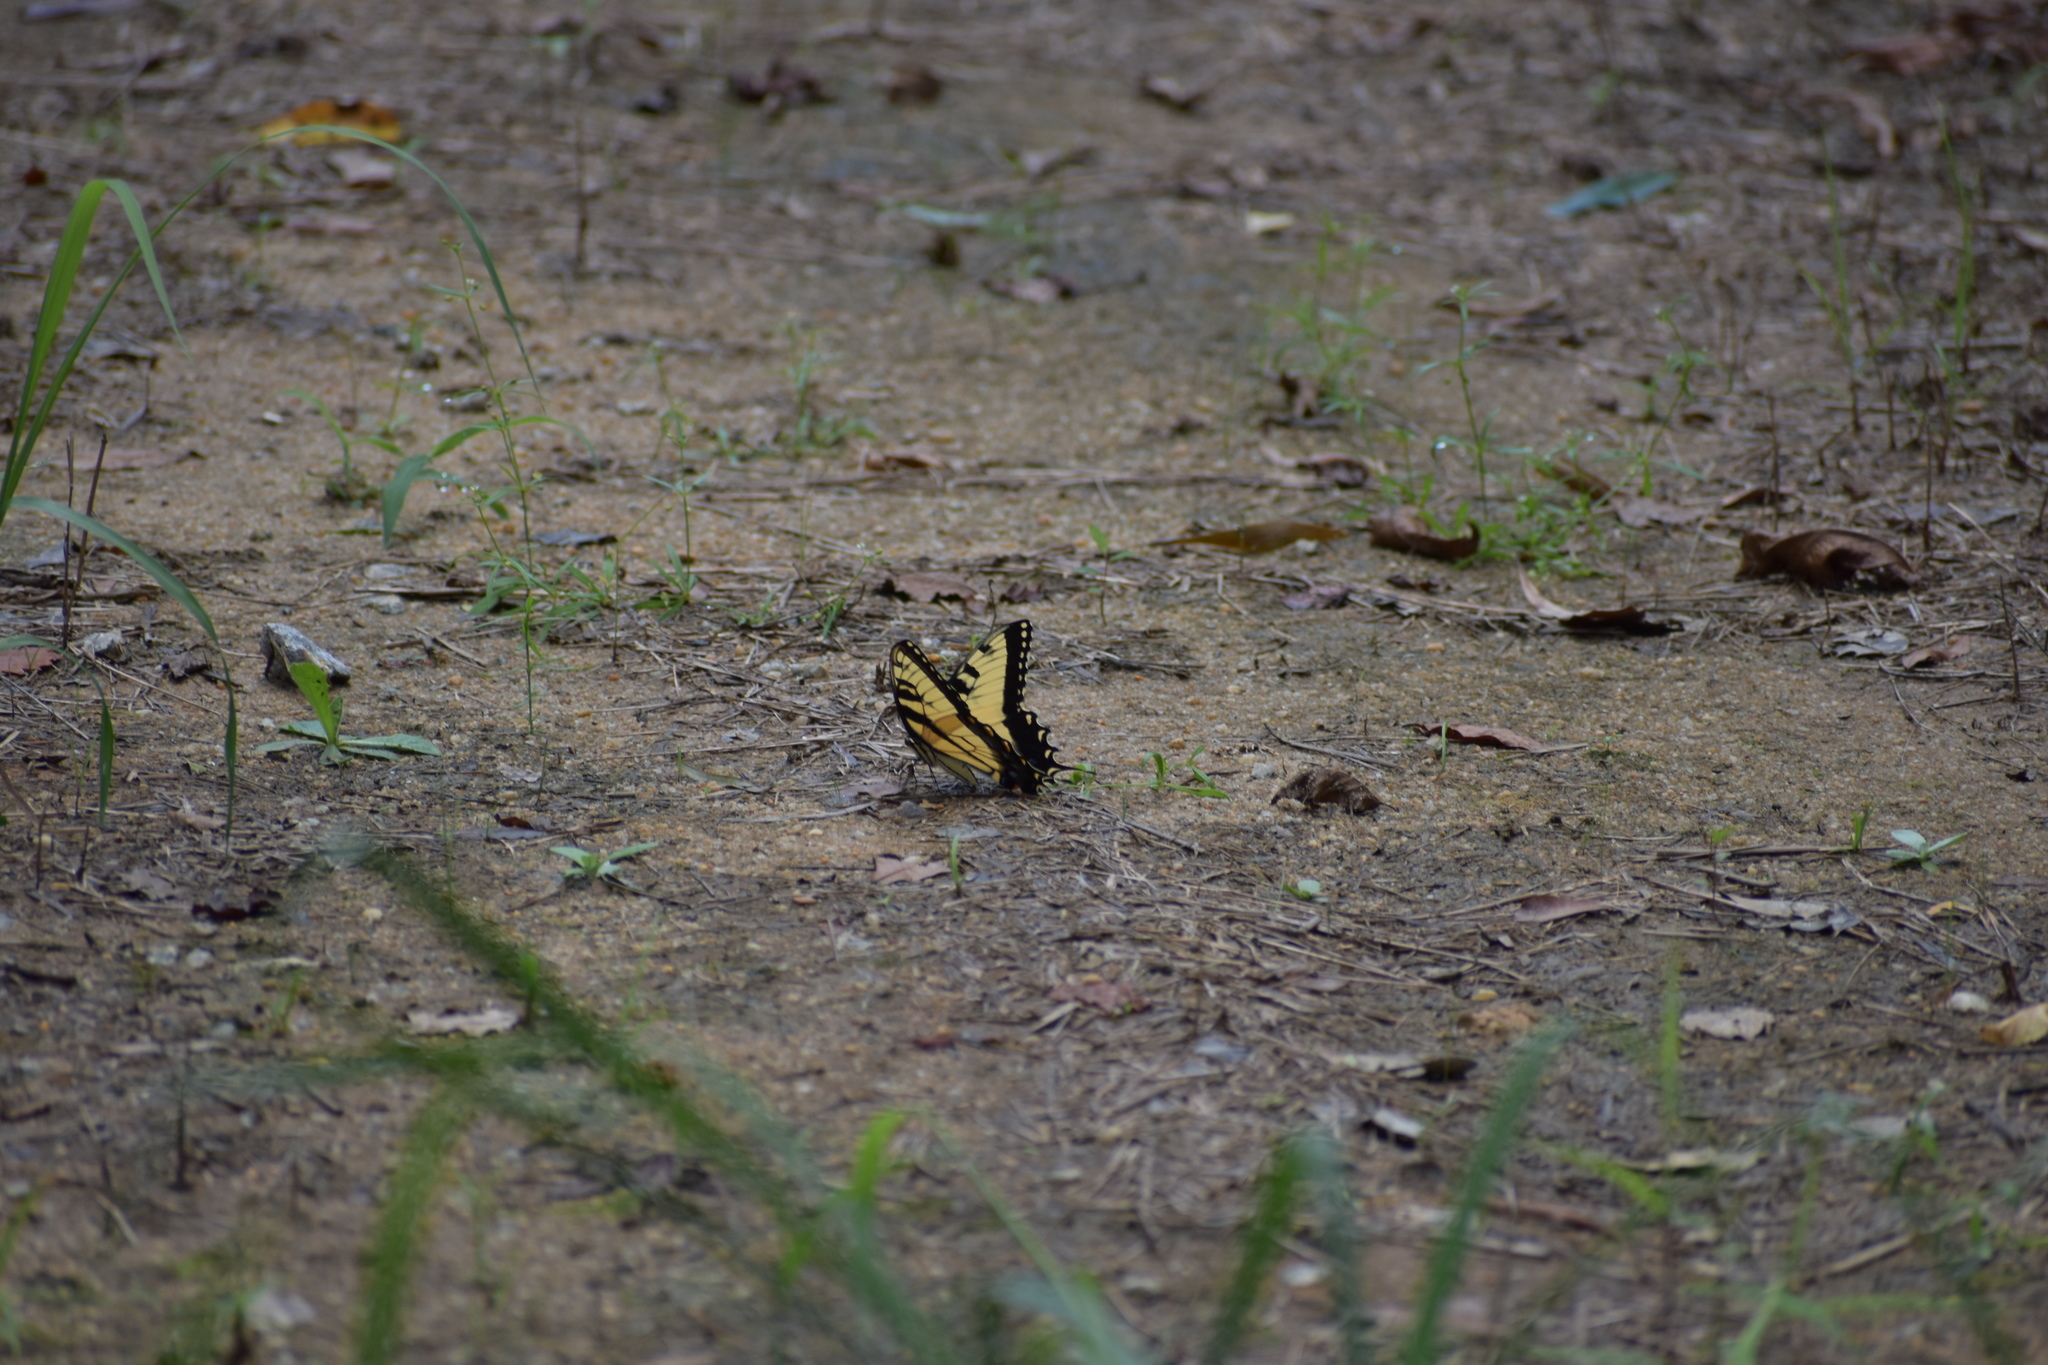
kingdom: Animalia
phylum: Arthropoda
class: Insecta
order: Lepidoptera
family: Papilionidae
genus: Papilio
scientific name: Papilio glaucus
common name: Tiger swallowtail
